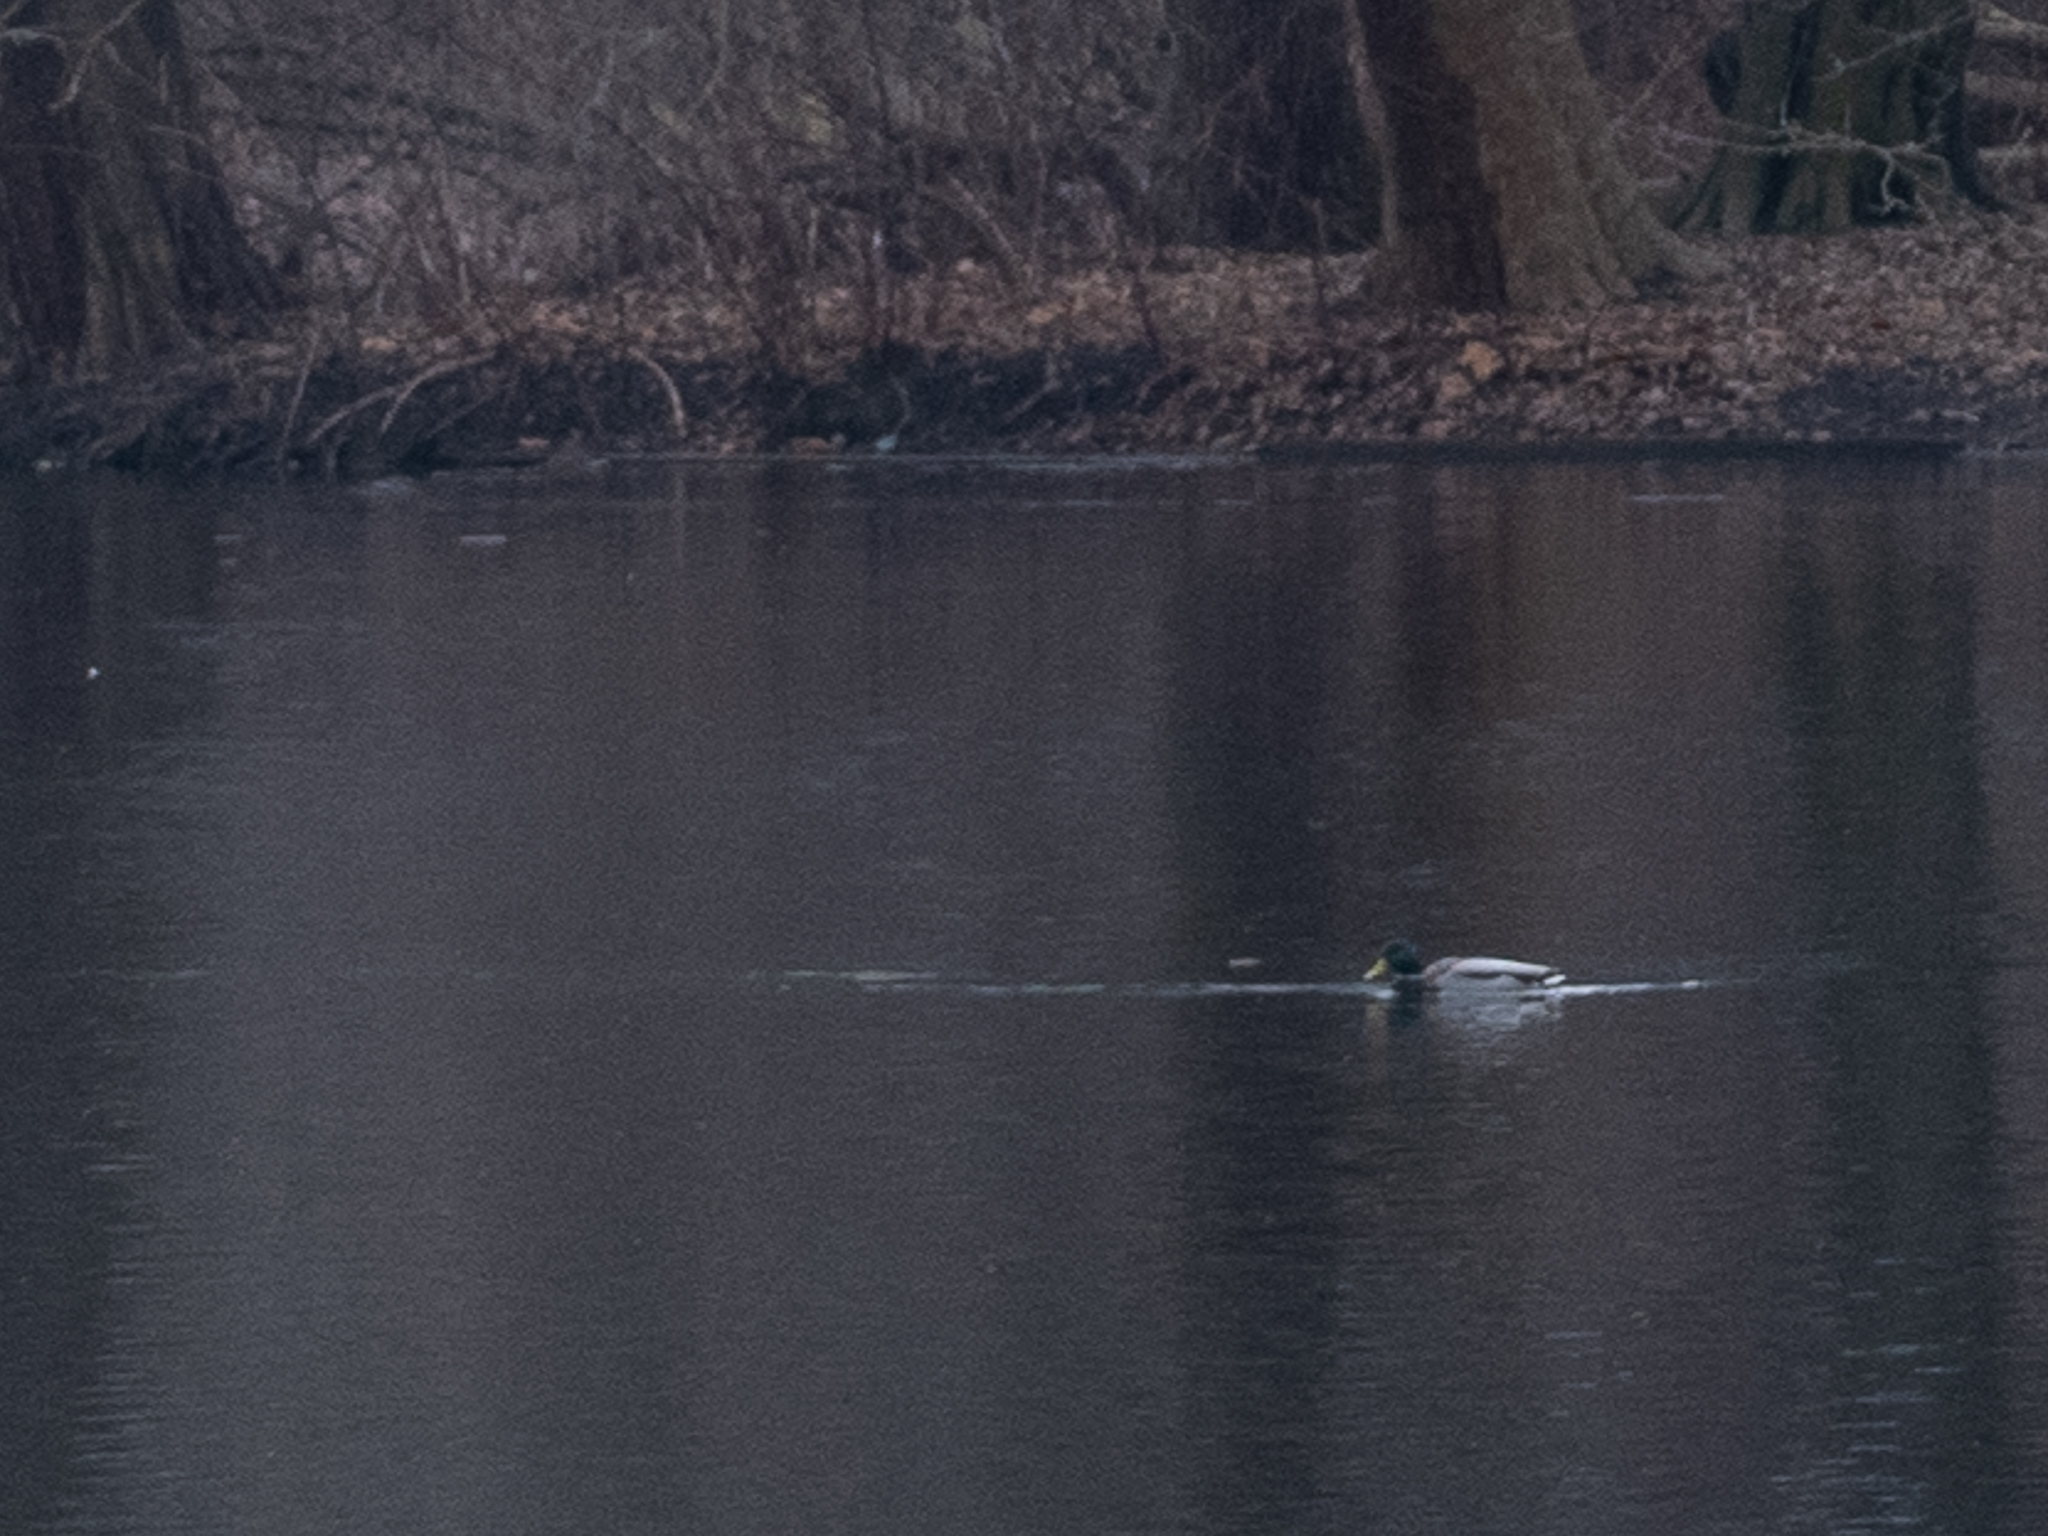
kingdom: Animalia
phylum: Chordata
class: Aves
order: Anseriformes
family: Anatidae
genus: Anas
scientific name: Anas platyrhynchos
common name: Mallard
